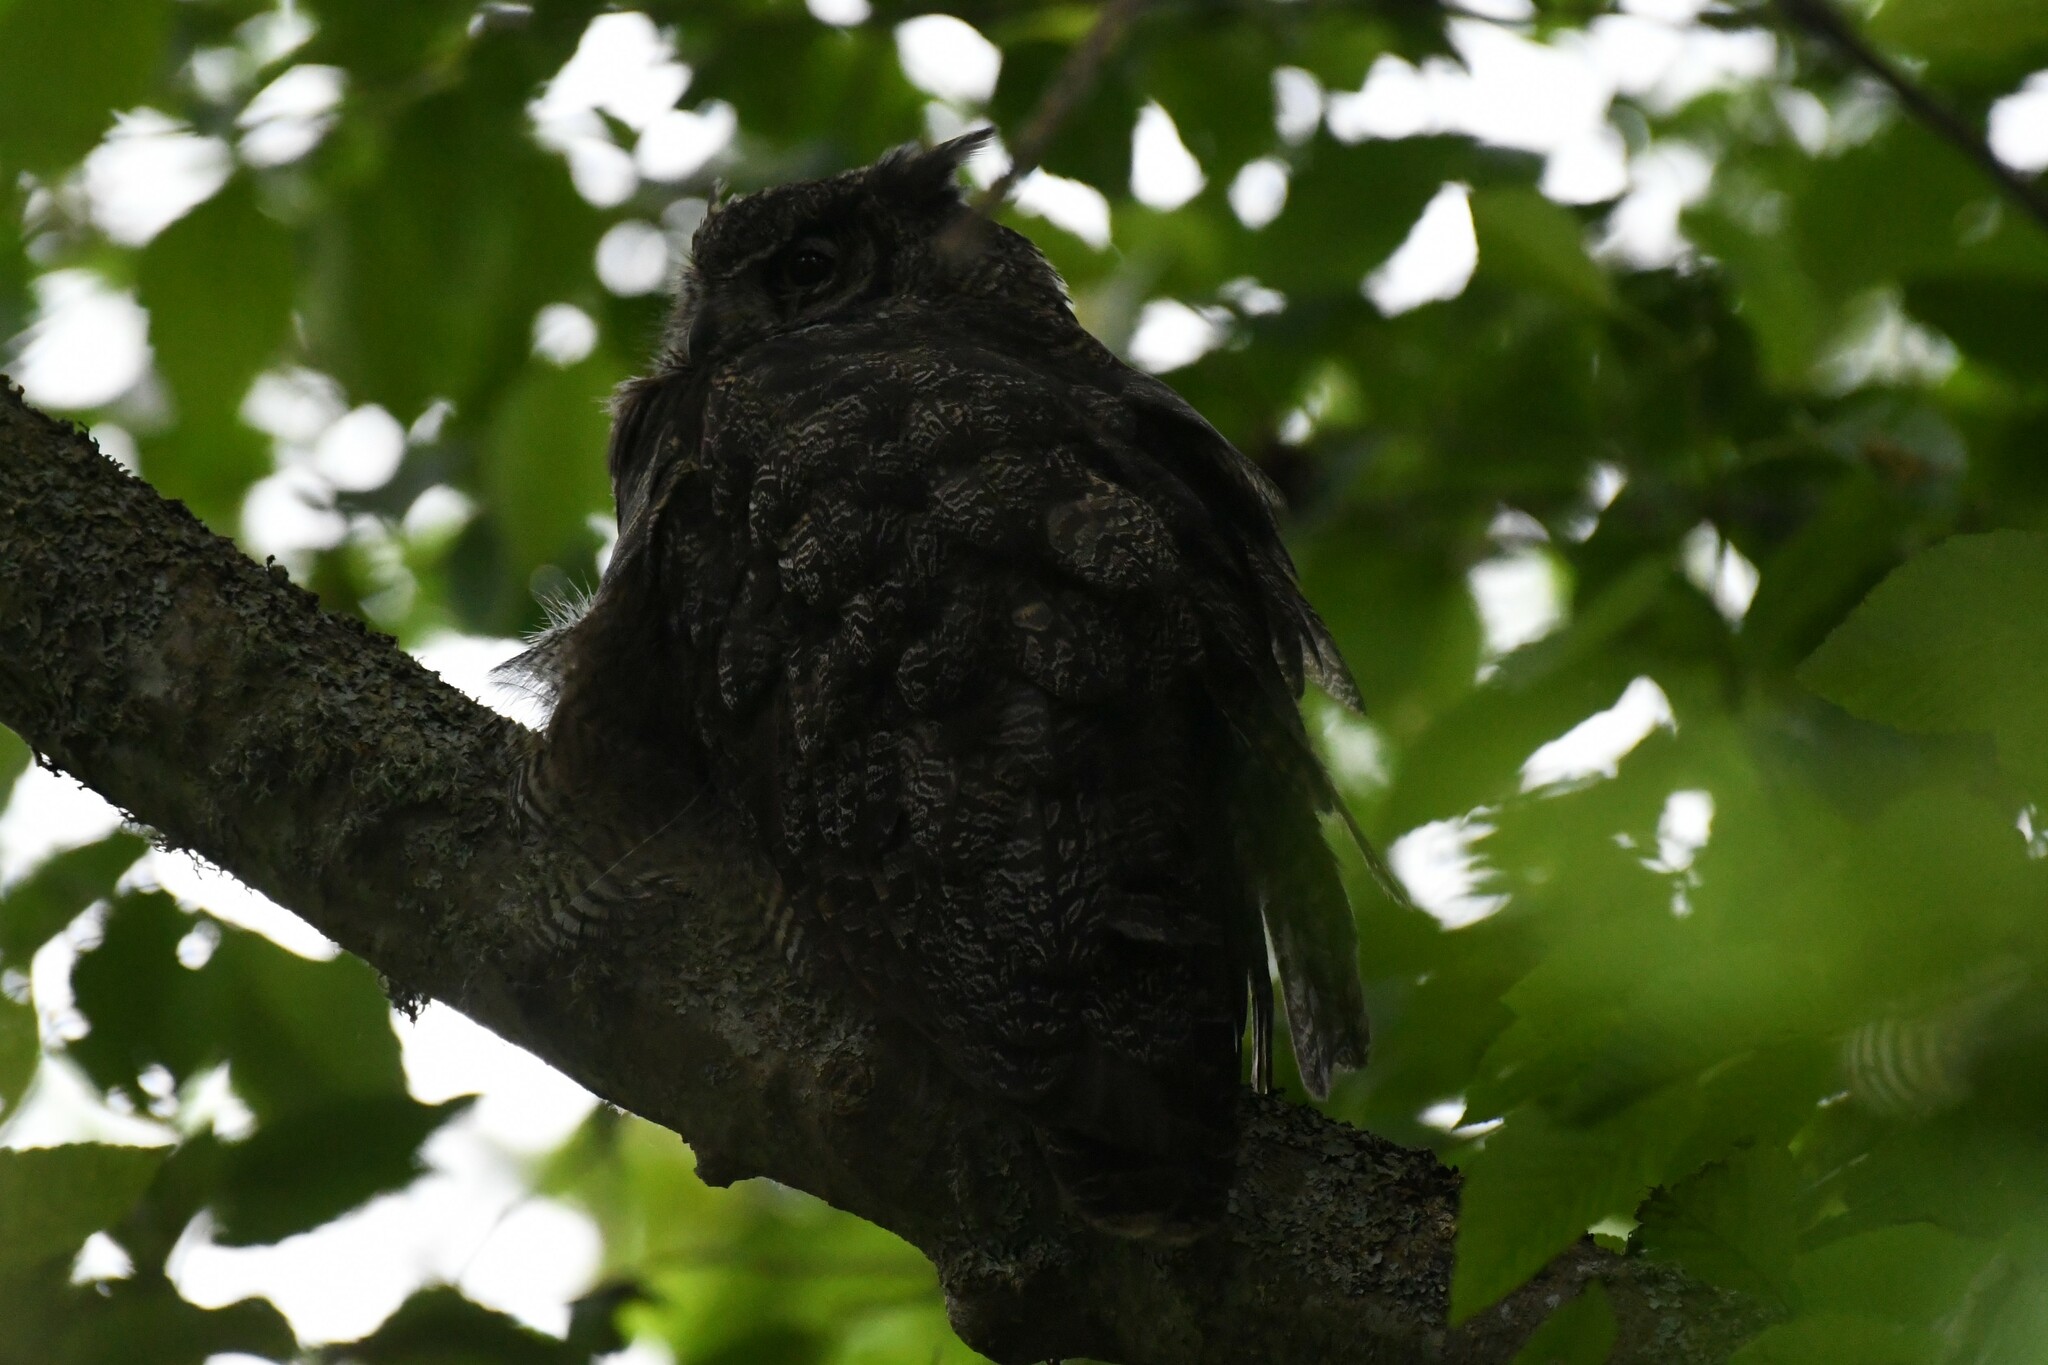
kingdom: Animalia
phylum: Chordata
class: Aves
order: Strigiformes
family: Strigidae
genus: Bubo
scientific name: Bubo virginianus
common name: Great horned owl
